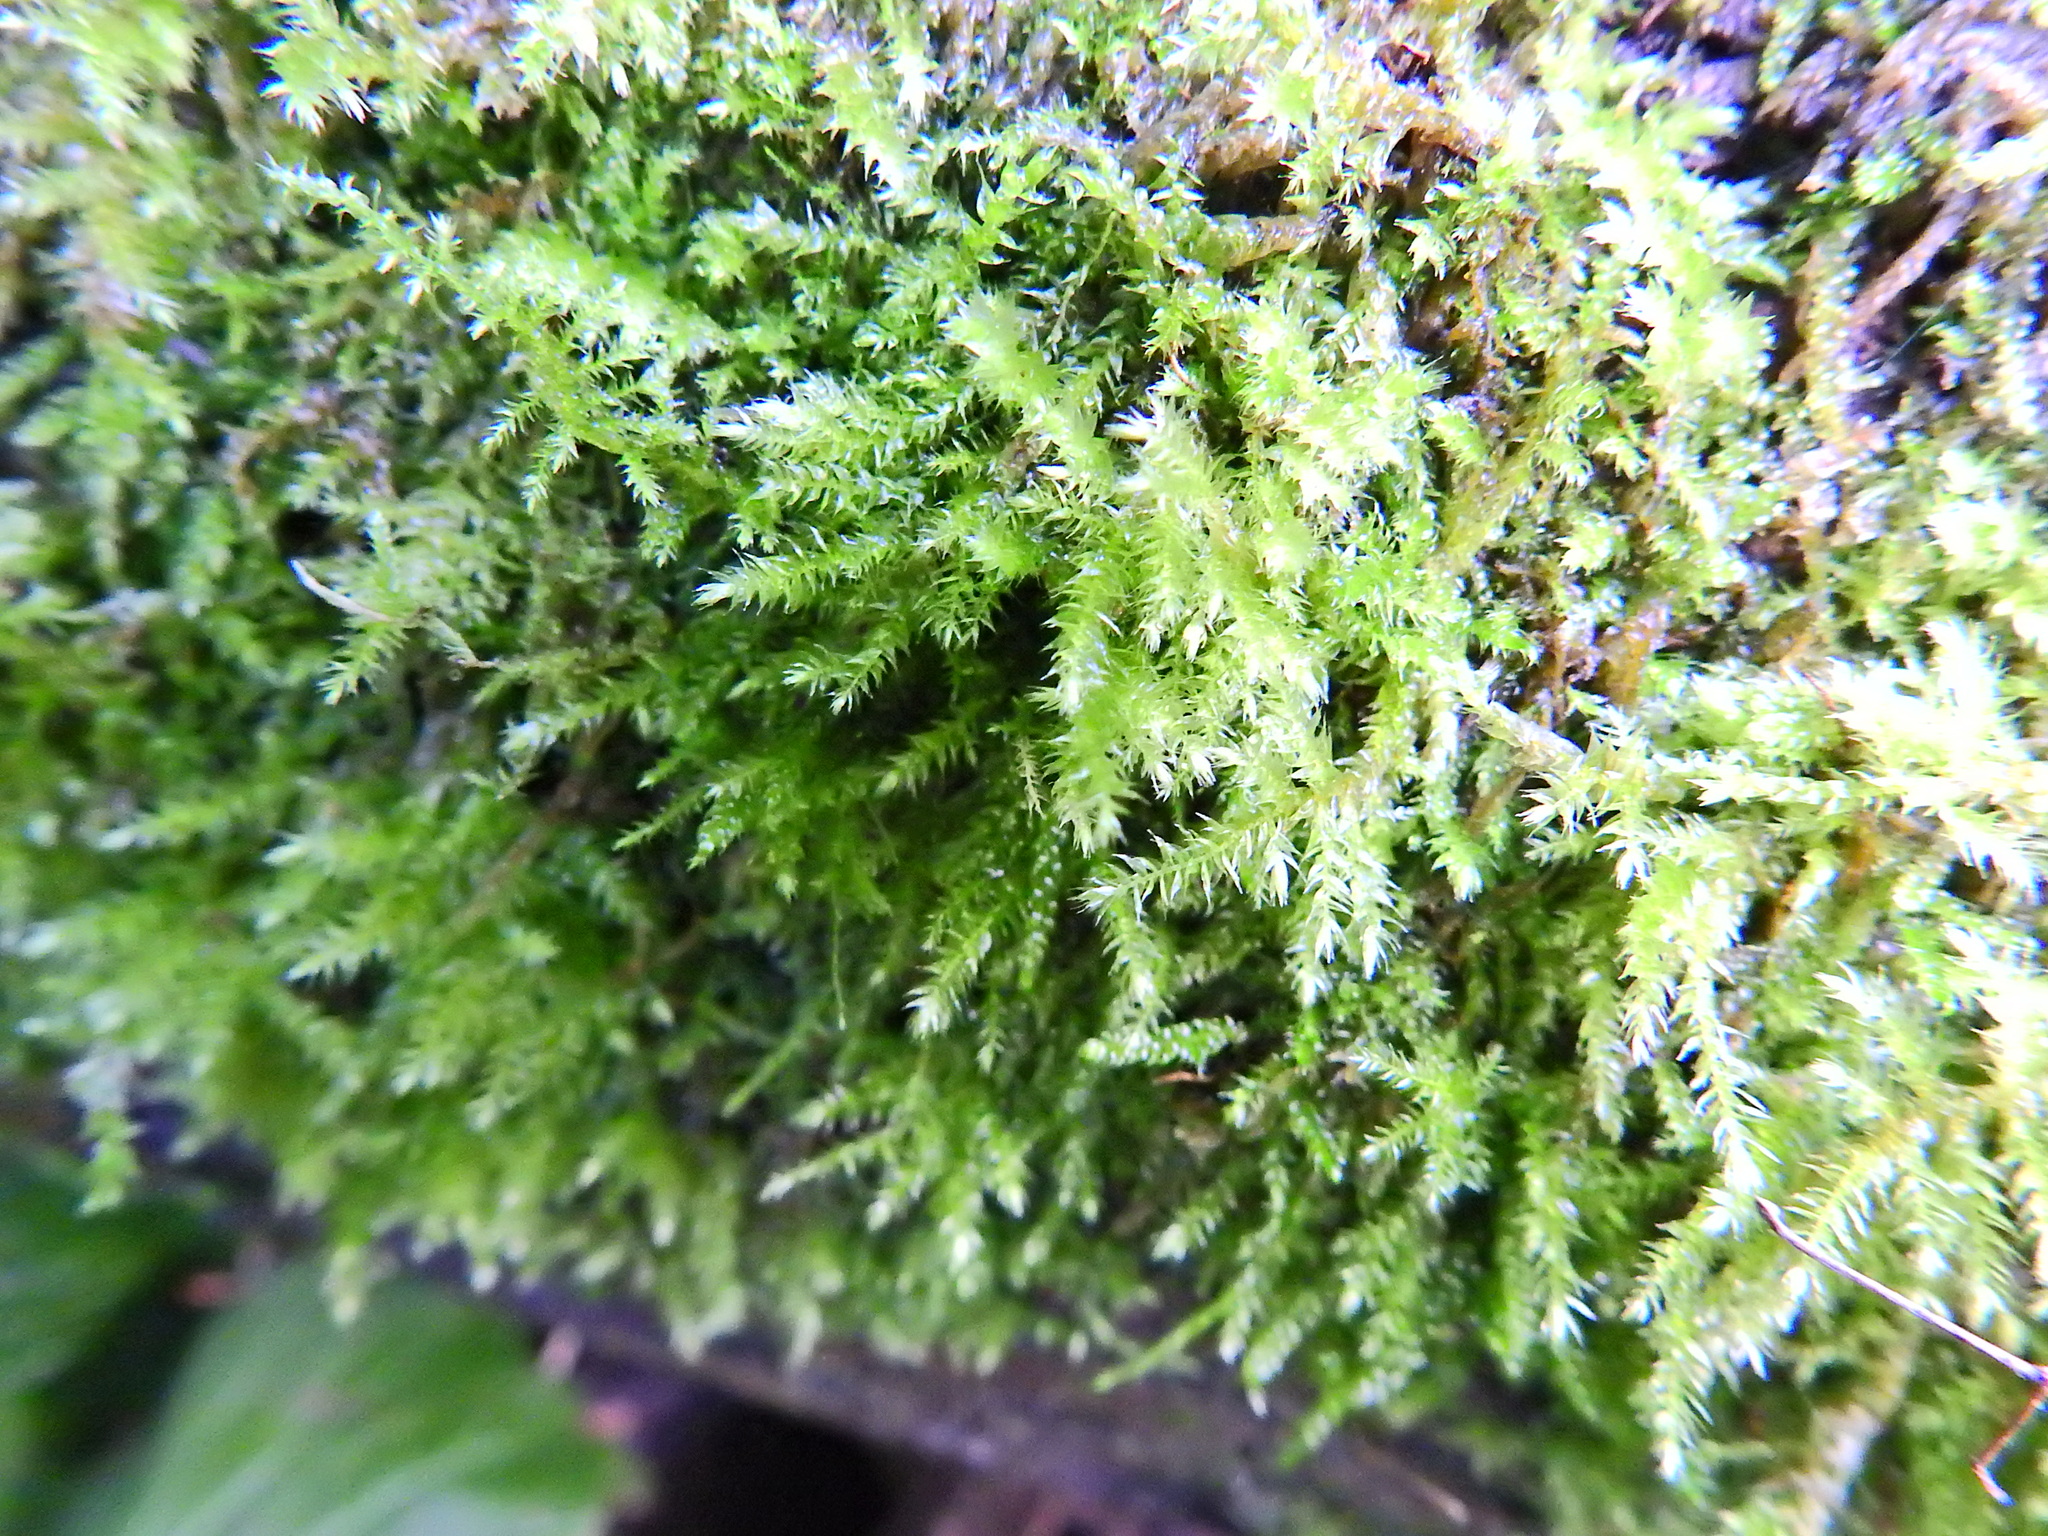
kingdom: Plantae
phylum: Bryophyta
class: Bryopsida
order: Hypnales
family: Brachytheciaceae
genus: Rhynchostegium
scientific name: Rhynchostegium confertum
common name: Clustered feather-moss
